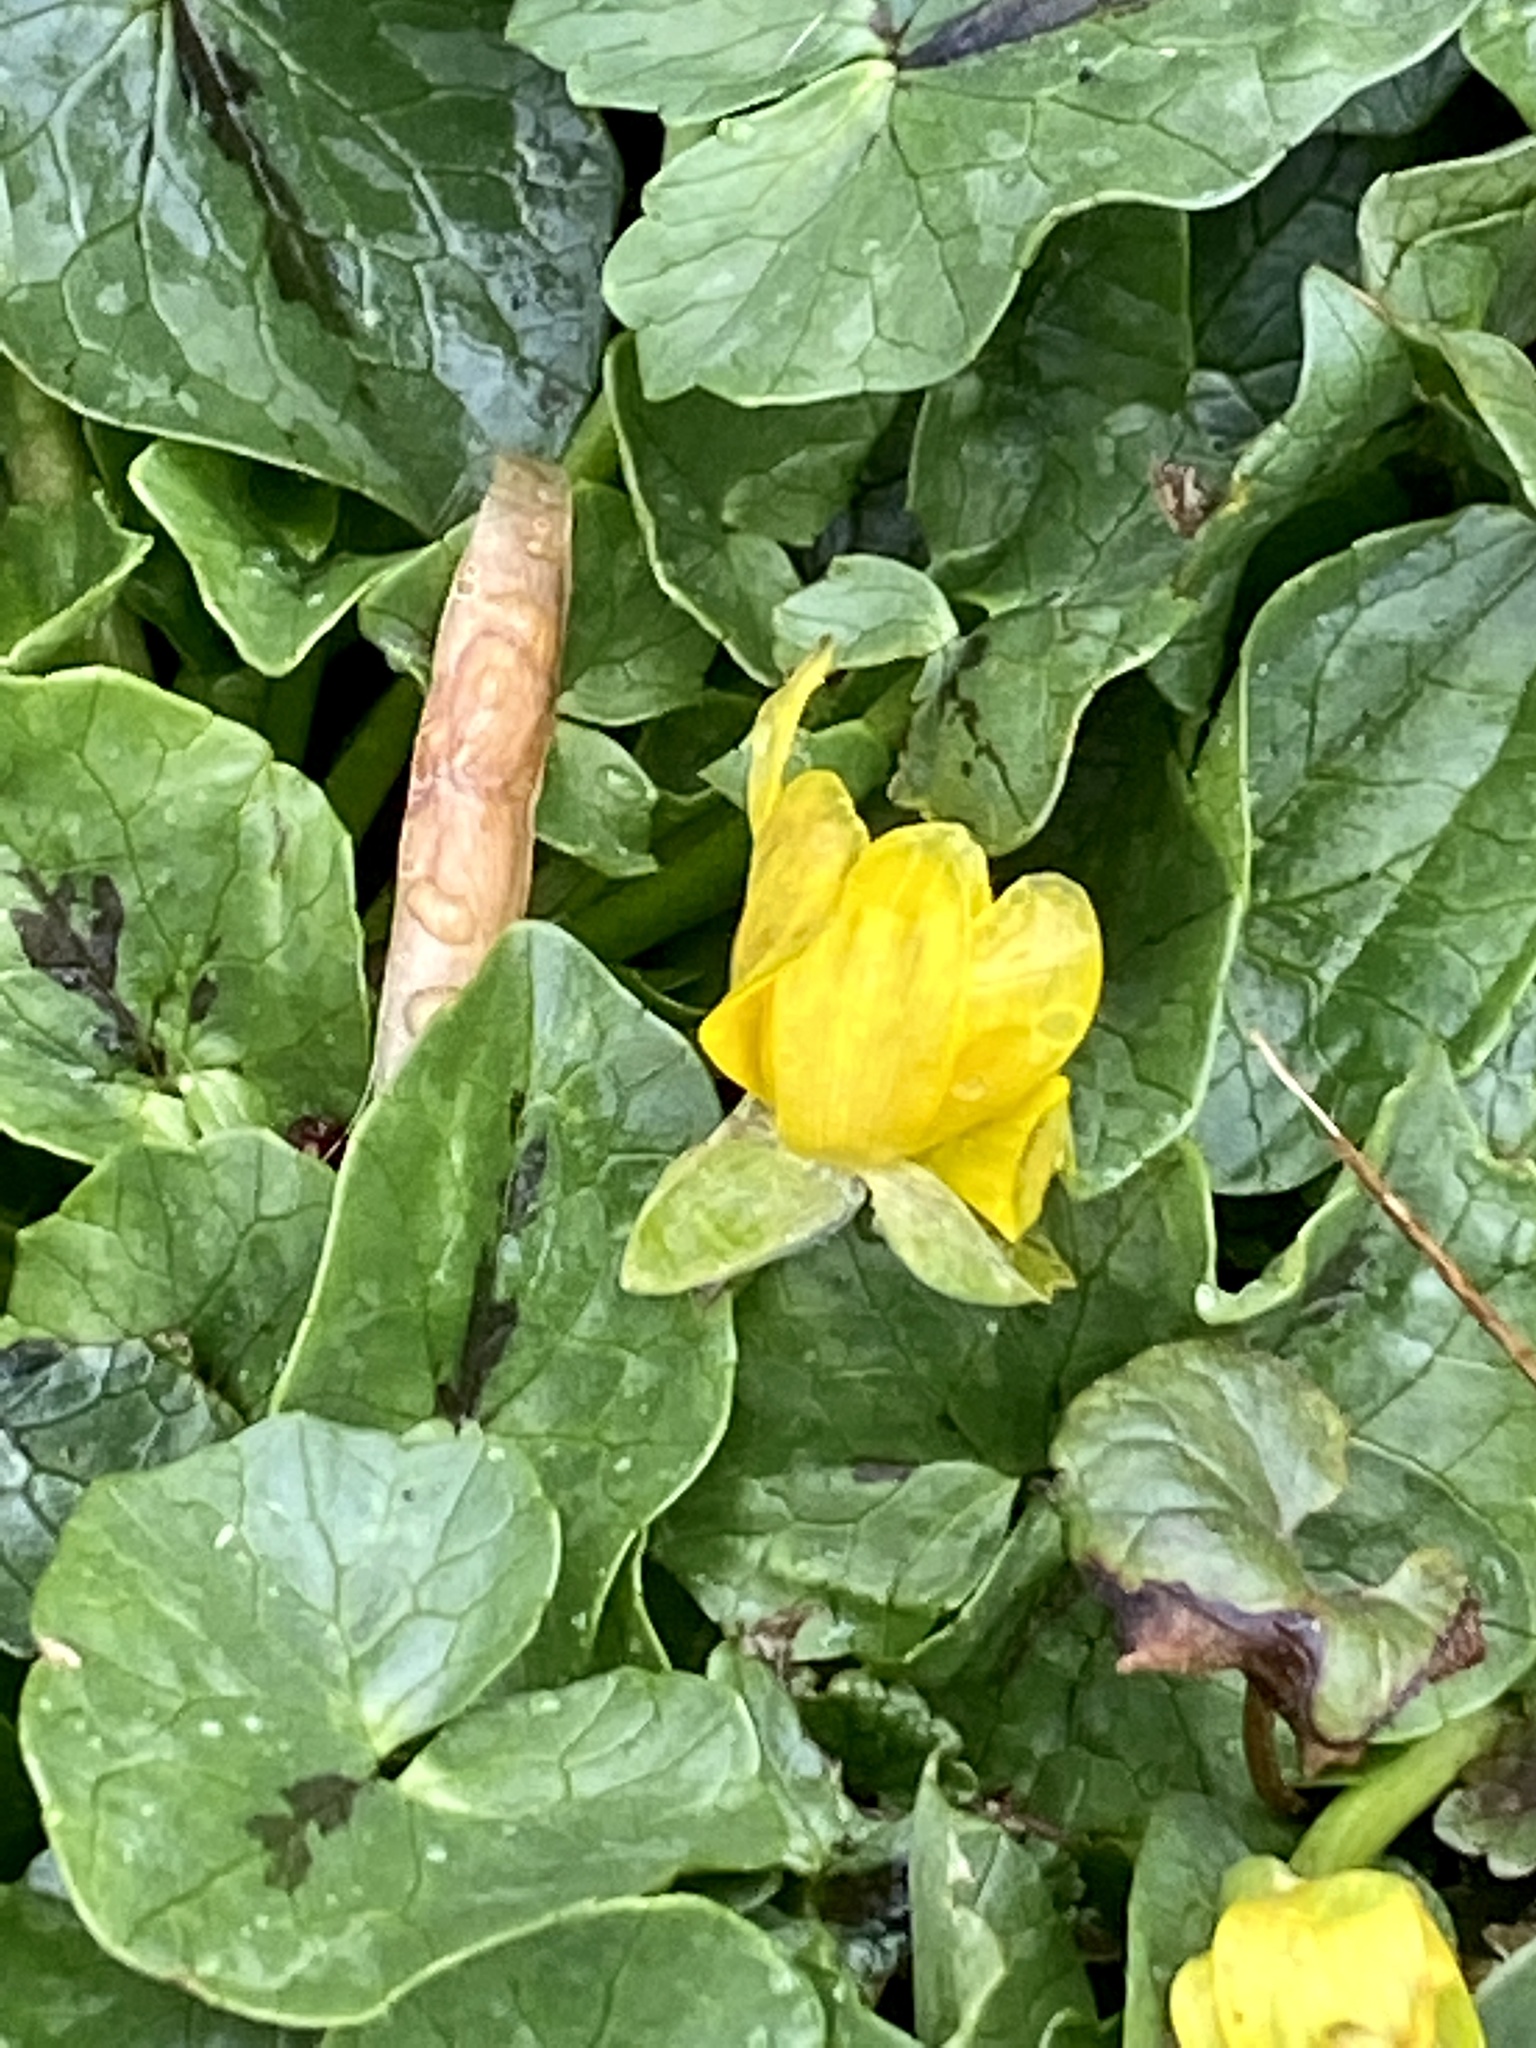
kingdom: Plantae
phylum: Tracheophyta
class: Magnoliopsida
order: Ranunculales
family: Ranunculaceae
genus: Ficaria
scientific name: Ficaria verna
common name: Lesser celandine
